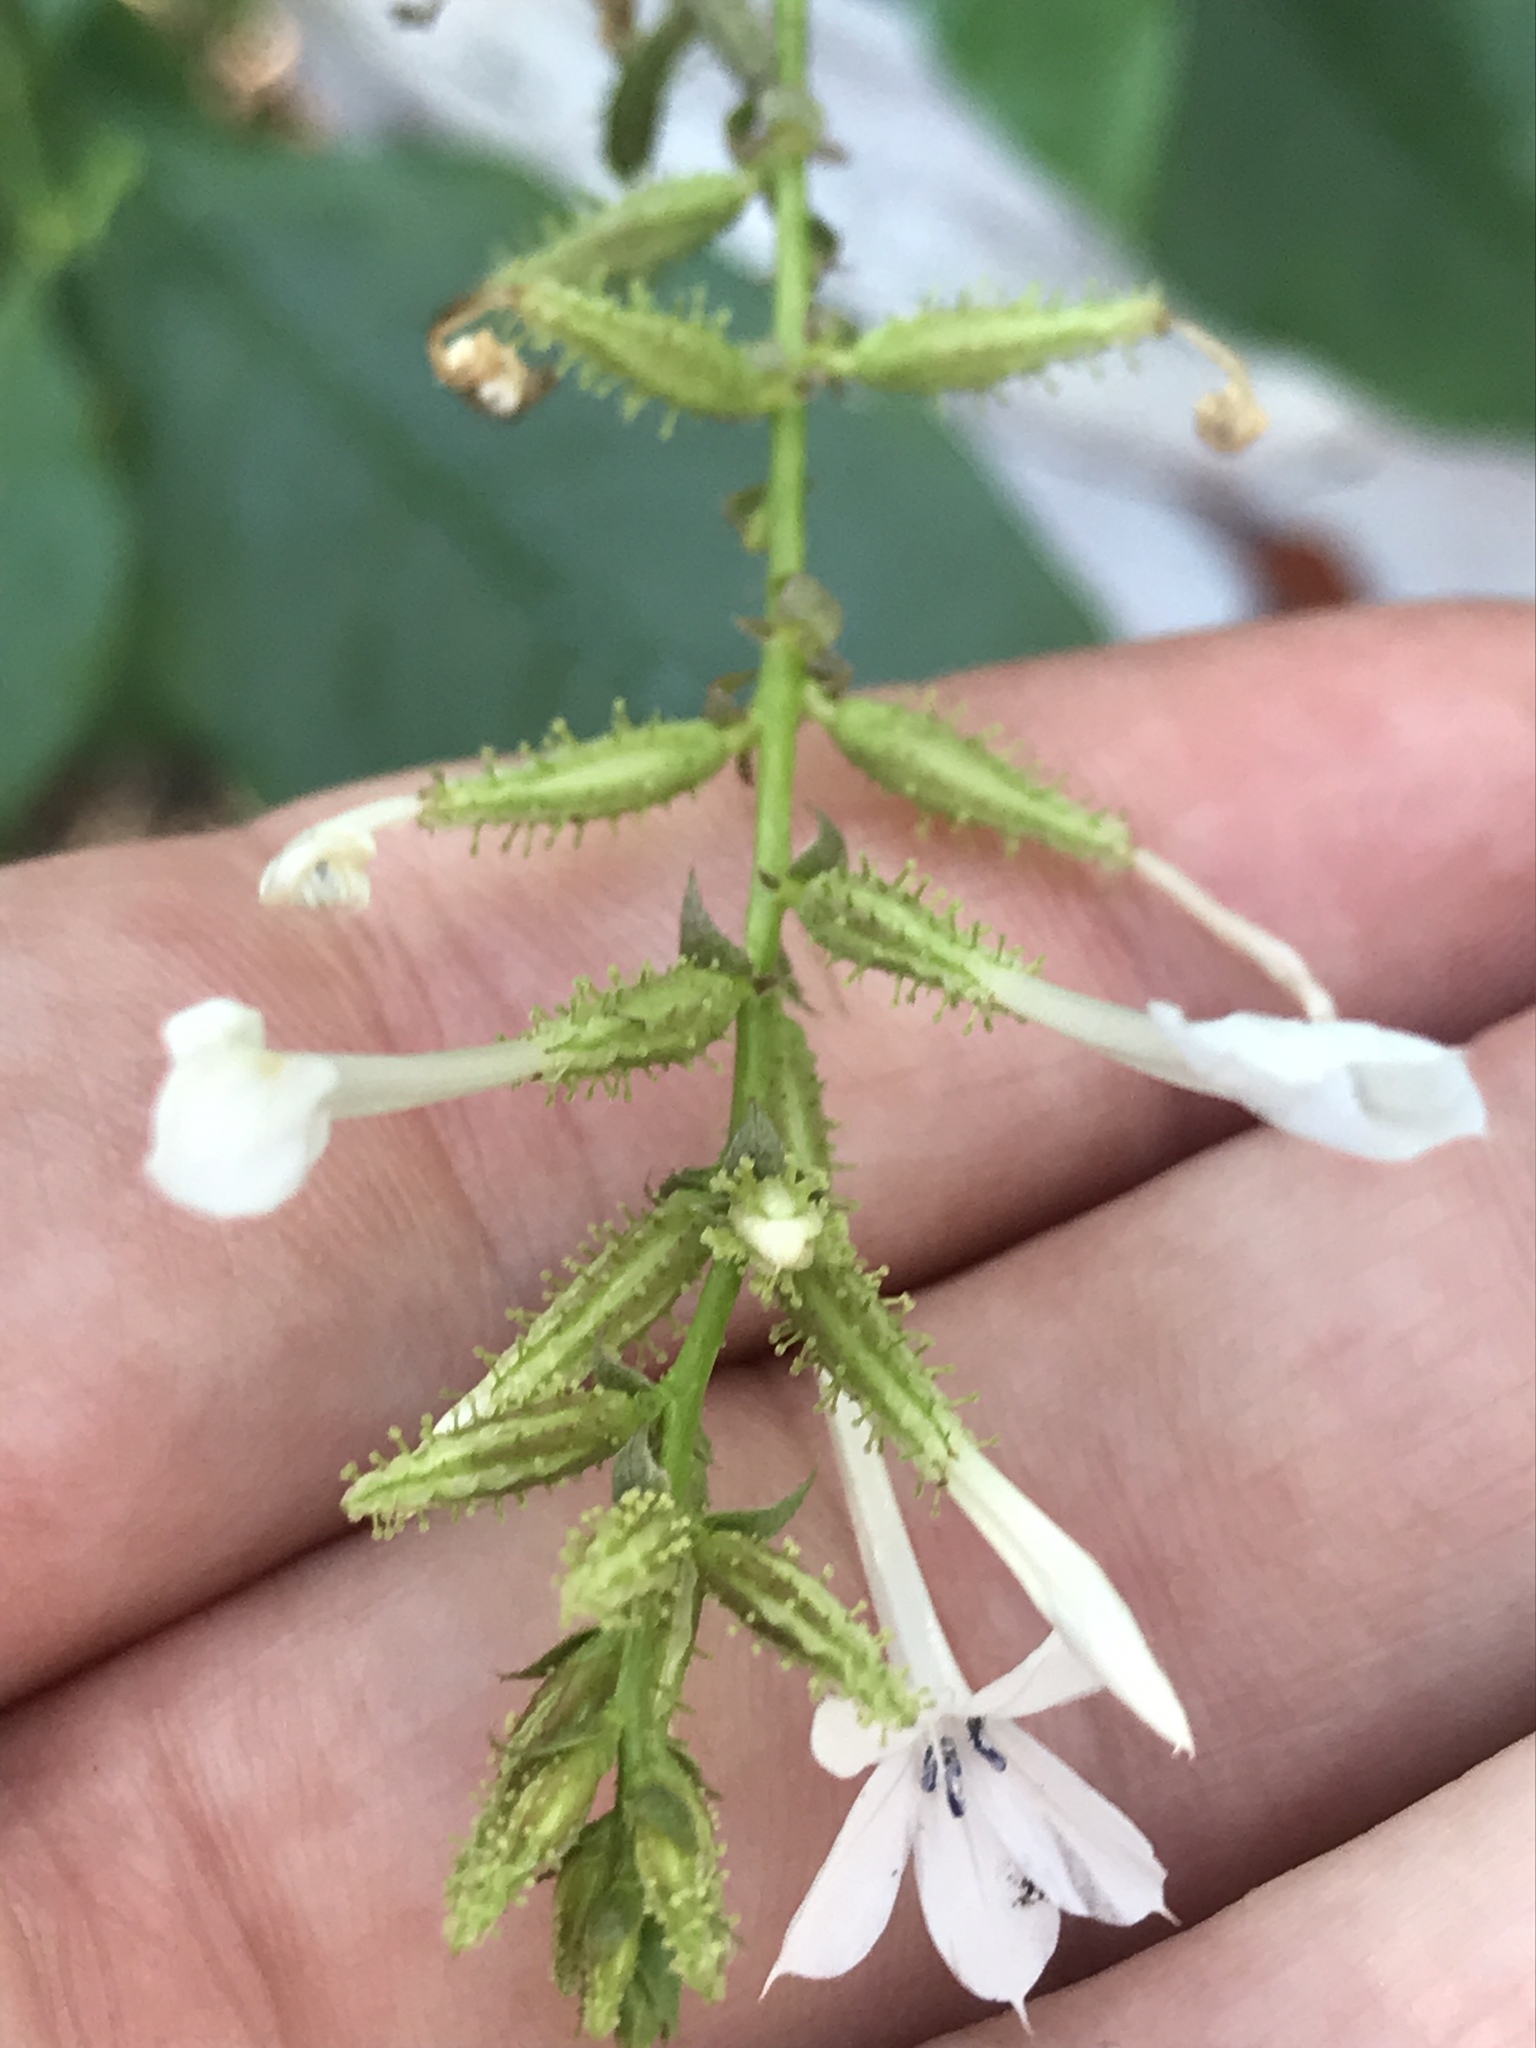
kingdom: Plantae
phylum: Tracheophyta
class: Magnoliopsida
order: Caryophyllales
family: Plumbaginaceae
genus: Plumbago
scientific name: Plumbago zeylanica
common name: Doctorbush
